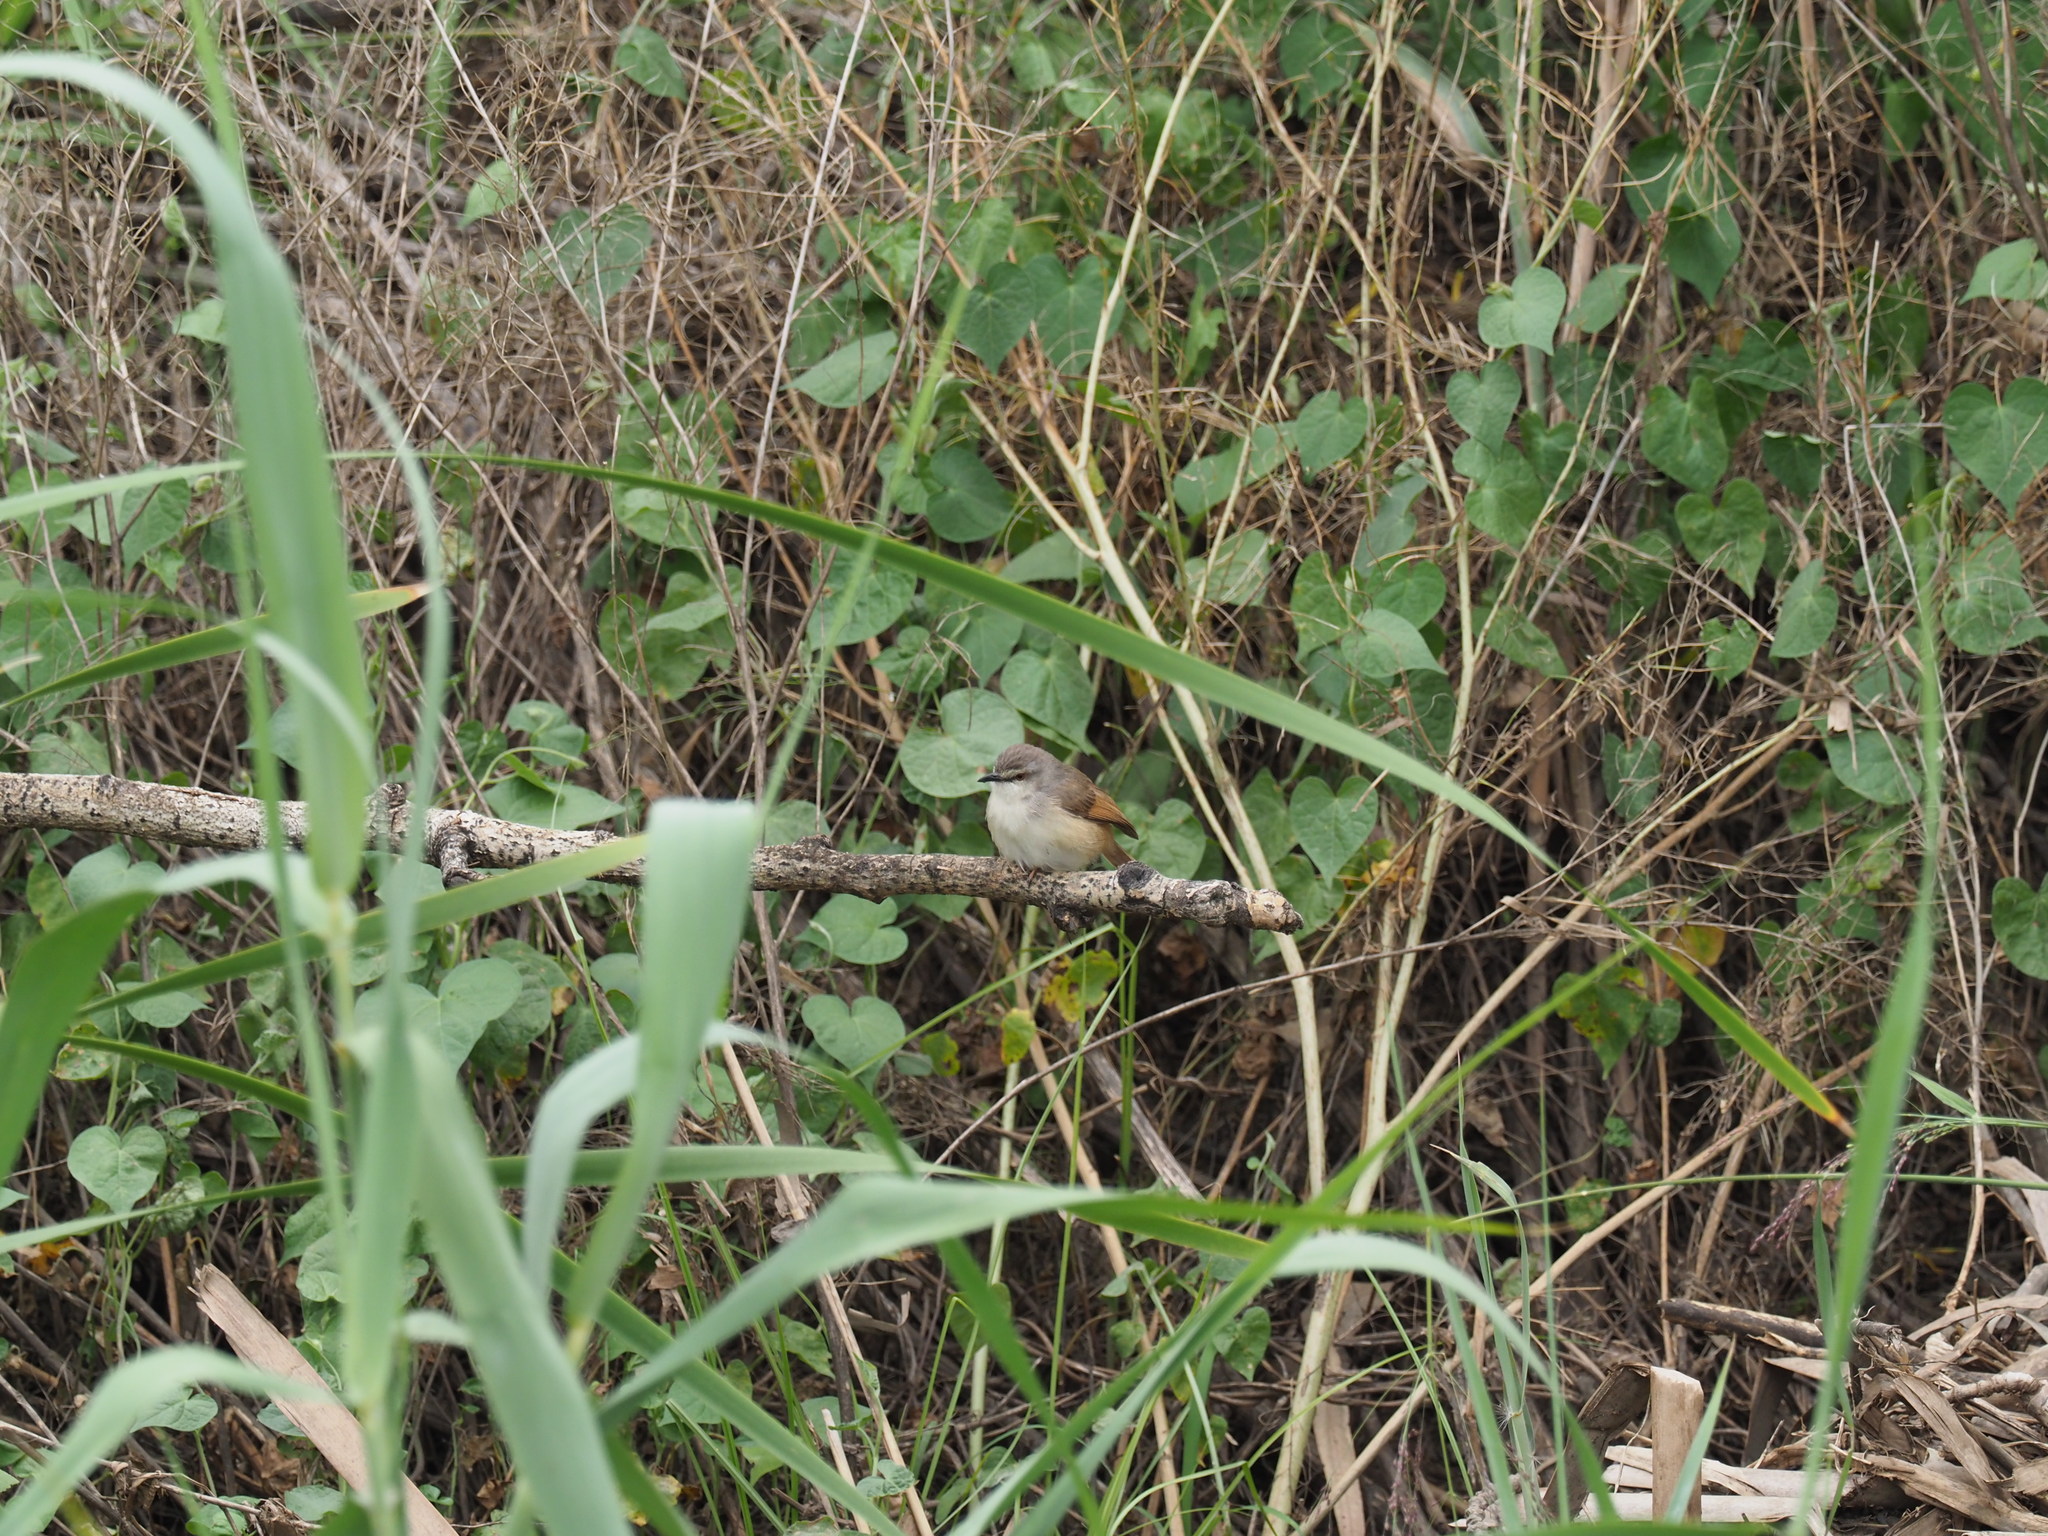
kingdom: Animalia
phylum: Chordata
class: Aves
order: Passeriformes
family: Cisticolidae
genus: Prinia
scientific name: Prinia subflava
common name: Tawny-flanked prinia
